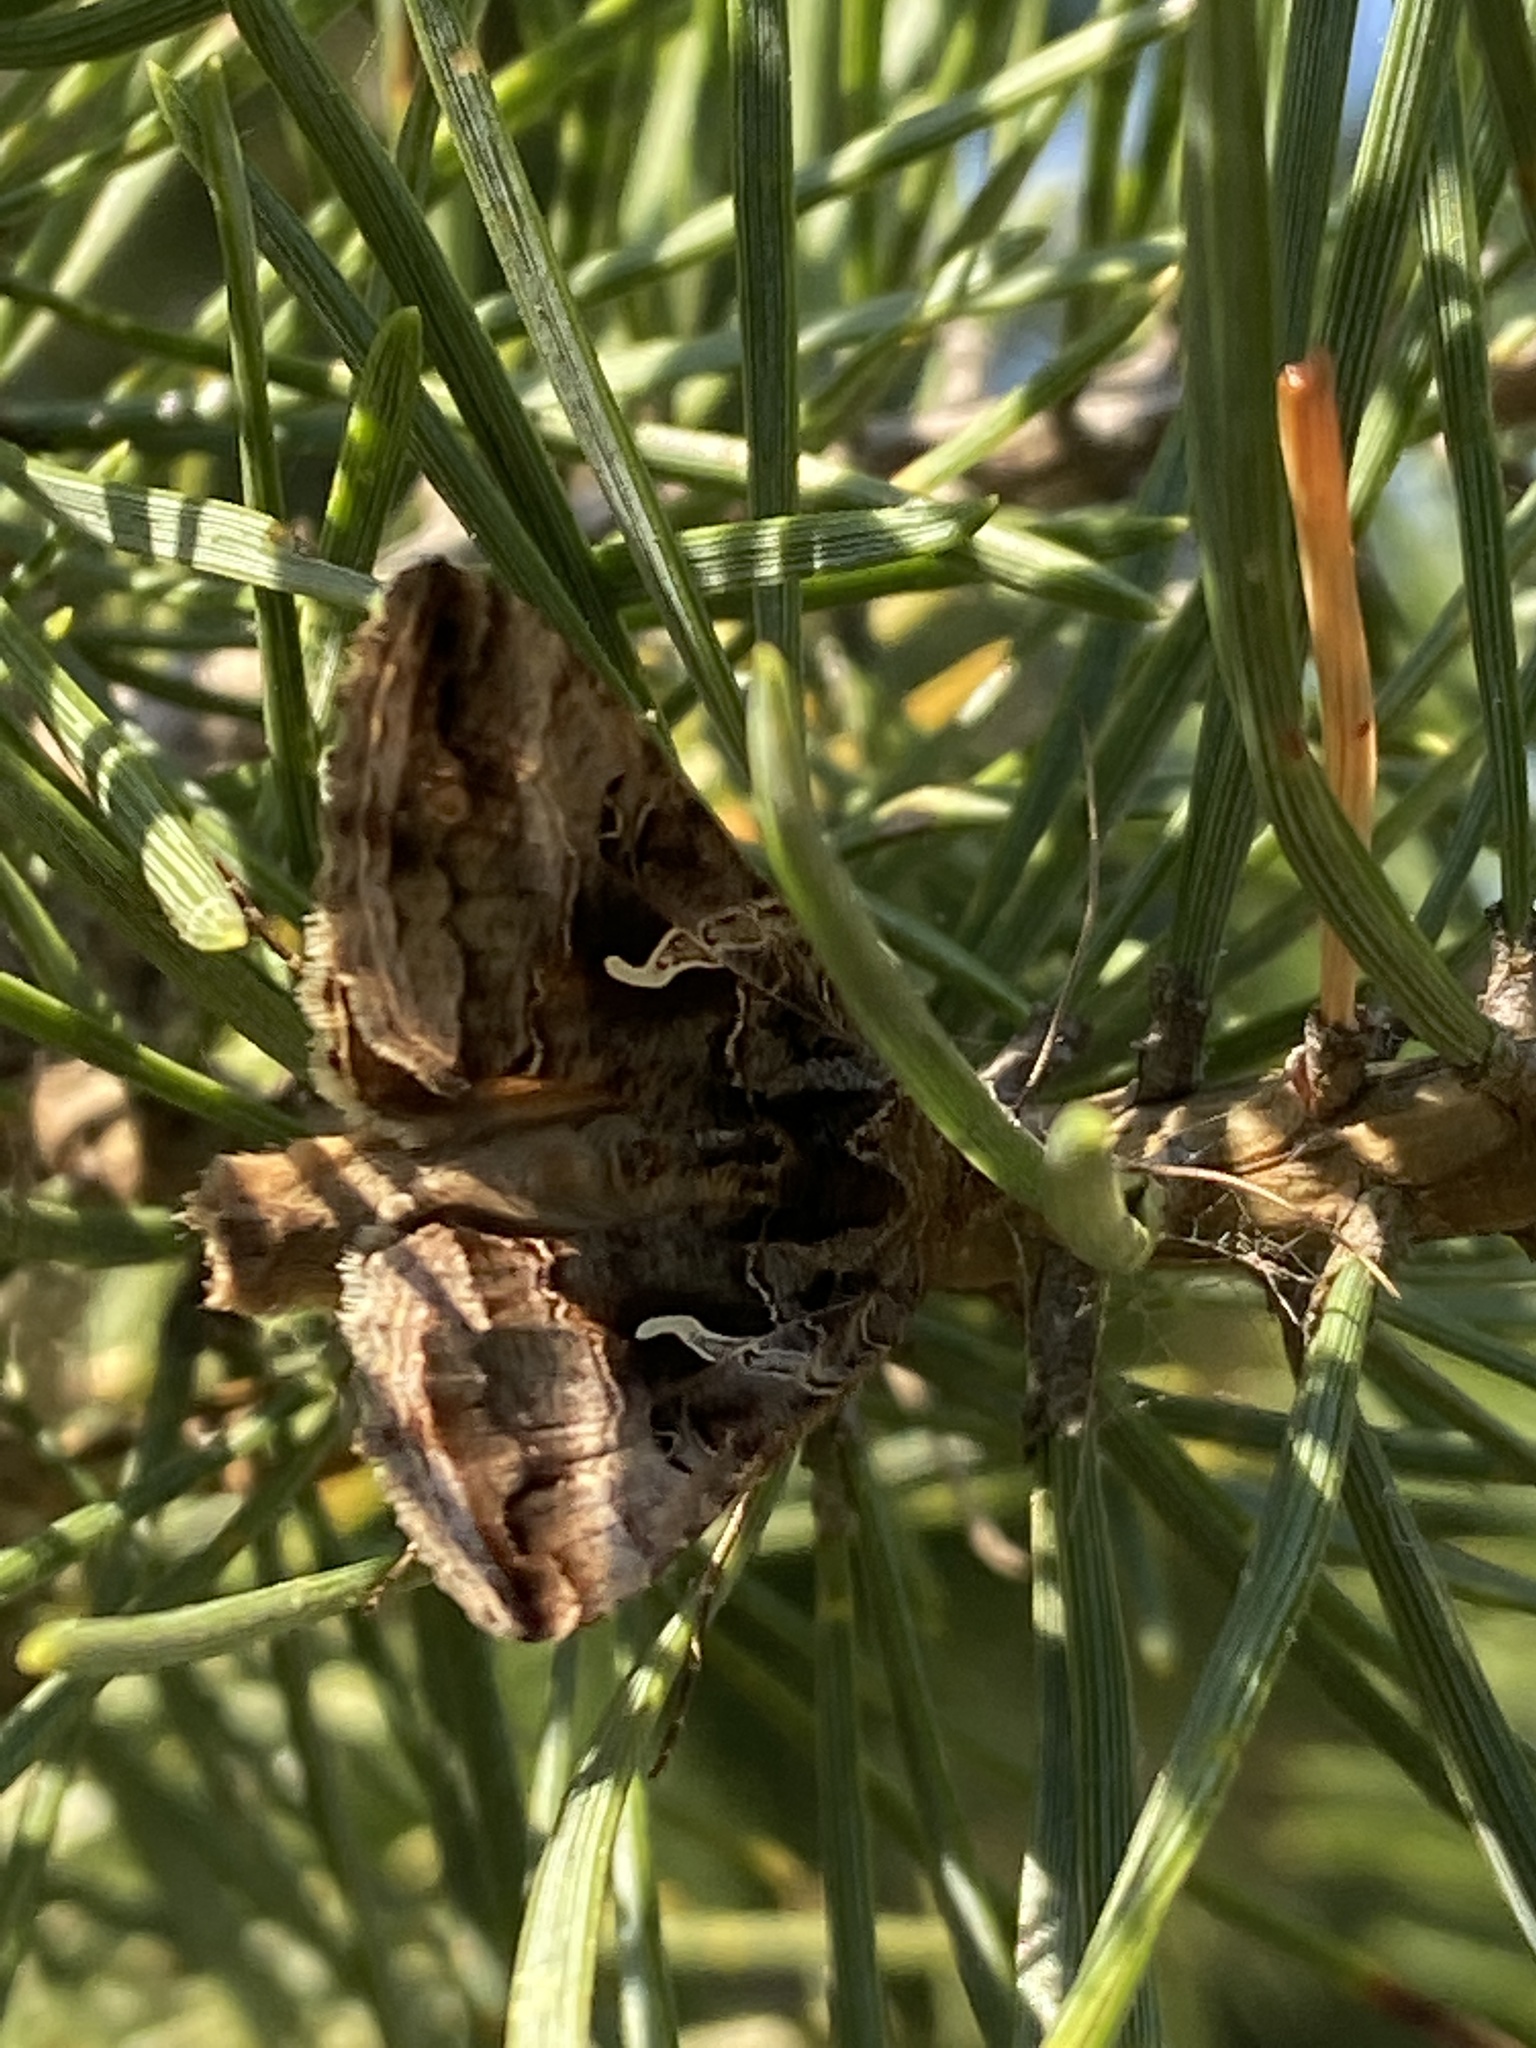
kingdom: Animalia
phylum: Arthropoda
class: Insecta
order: Lepidoptera
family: Noctuidae
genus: Autographa
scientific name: Autographa gamma
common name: Silver y
